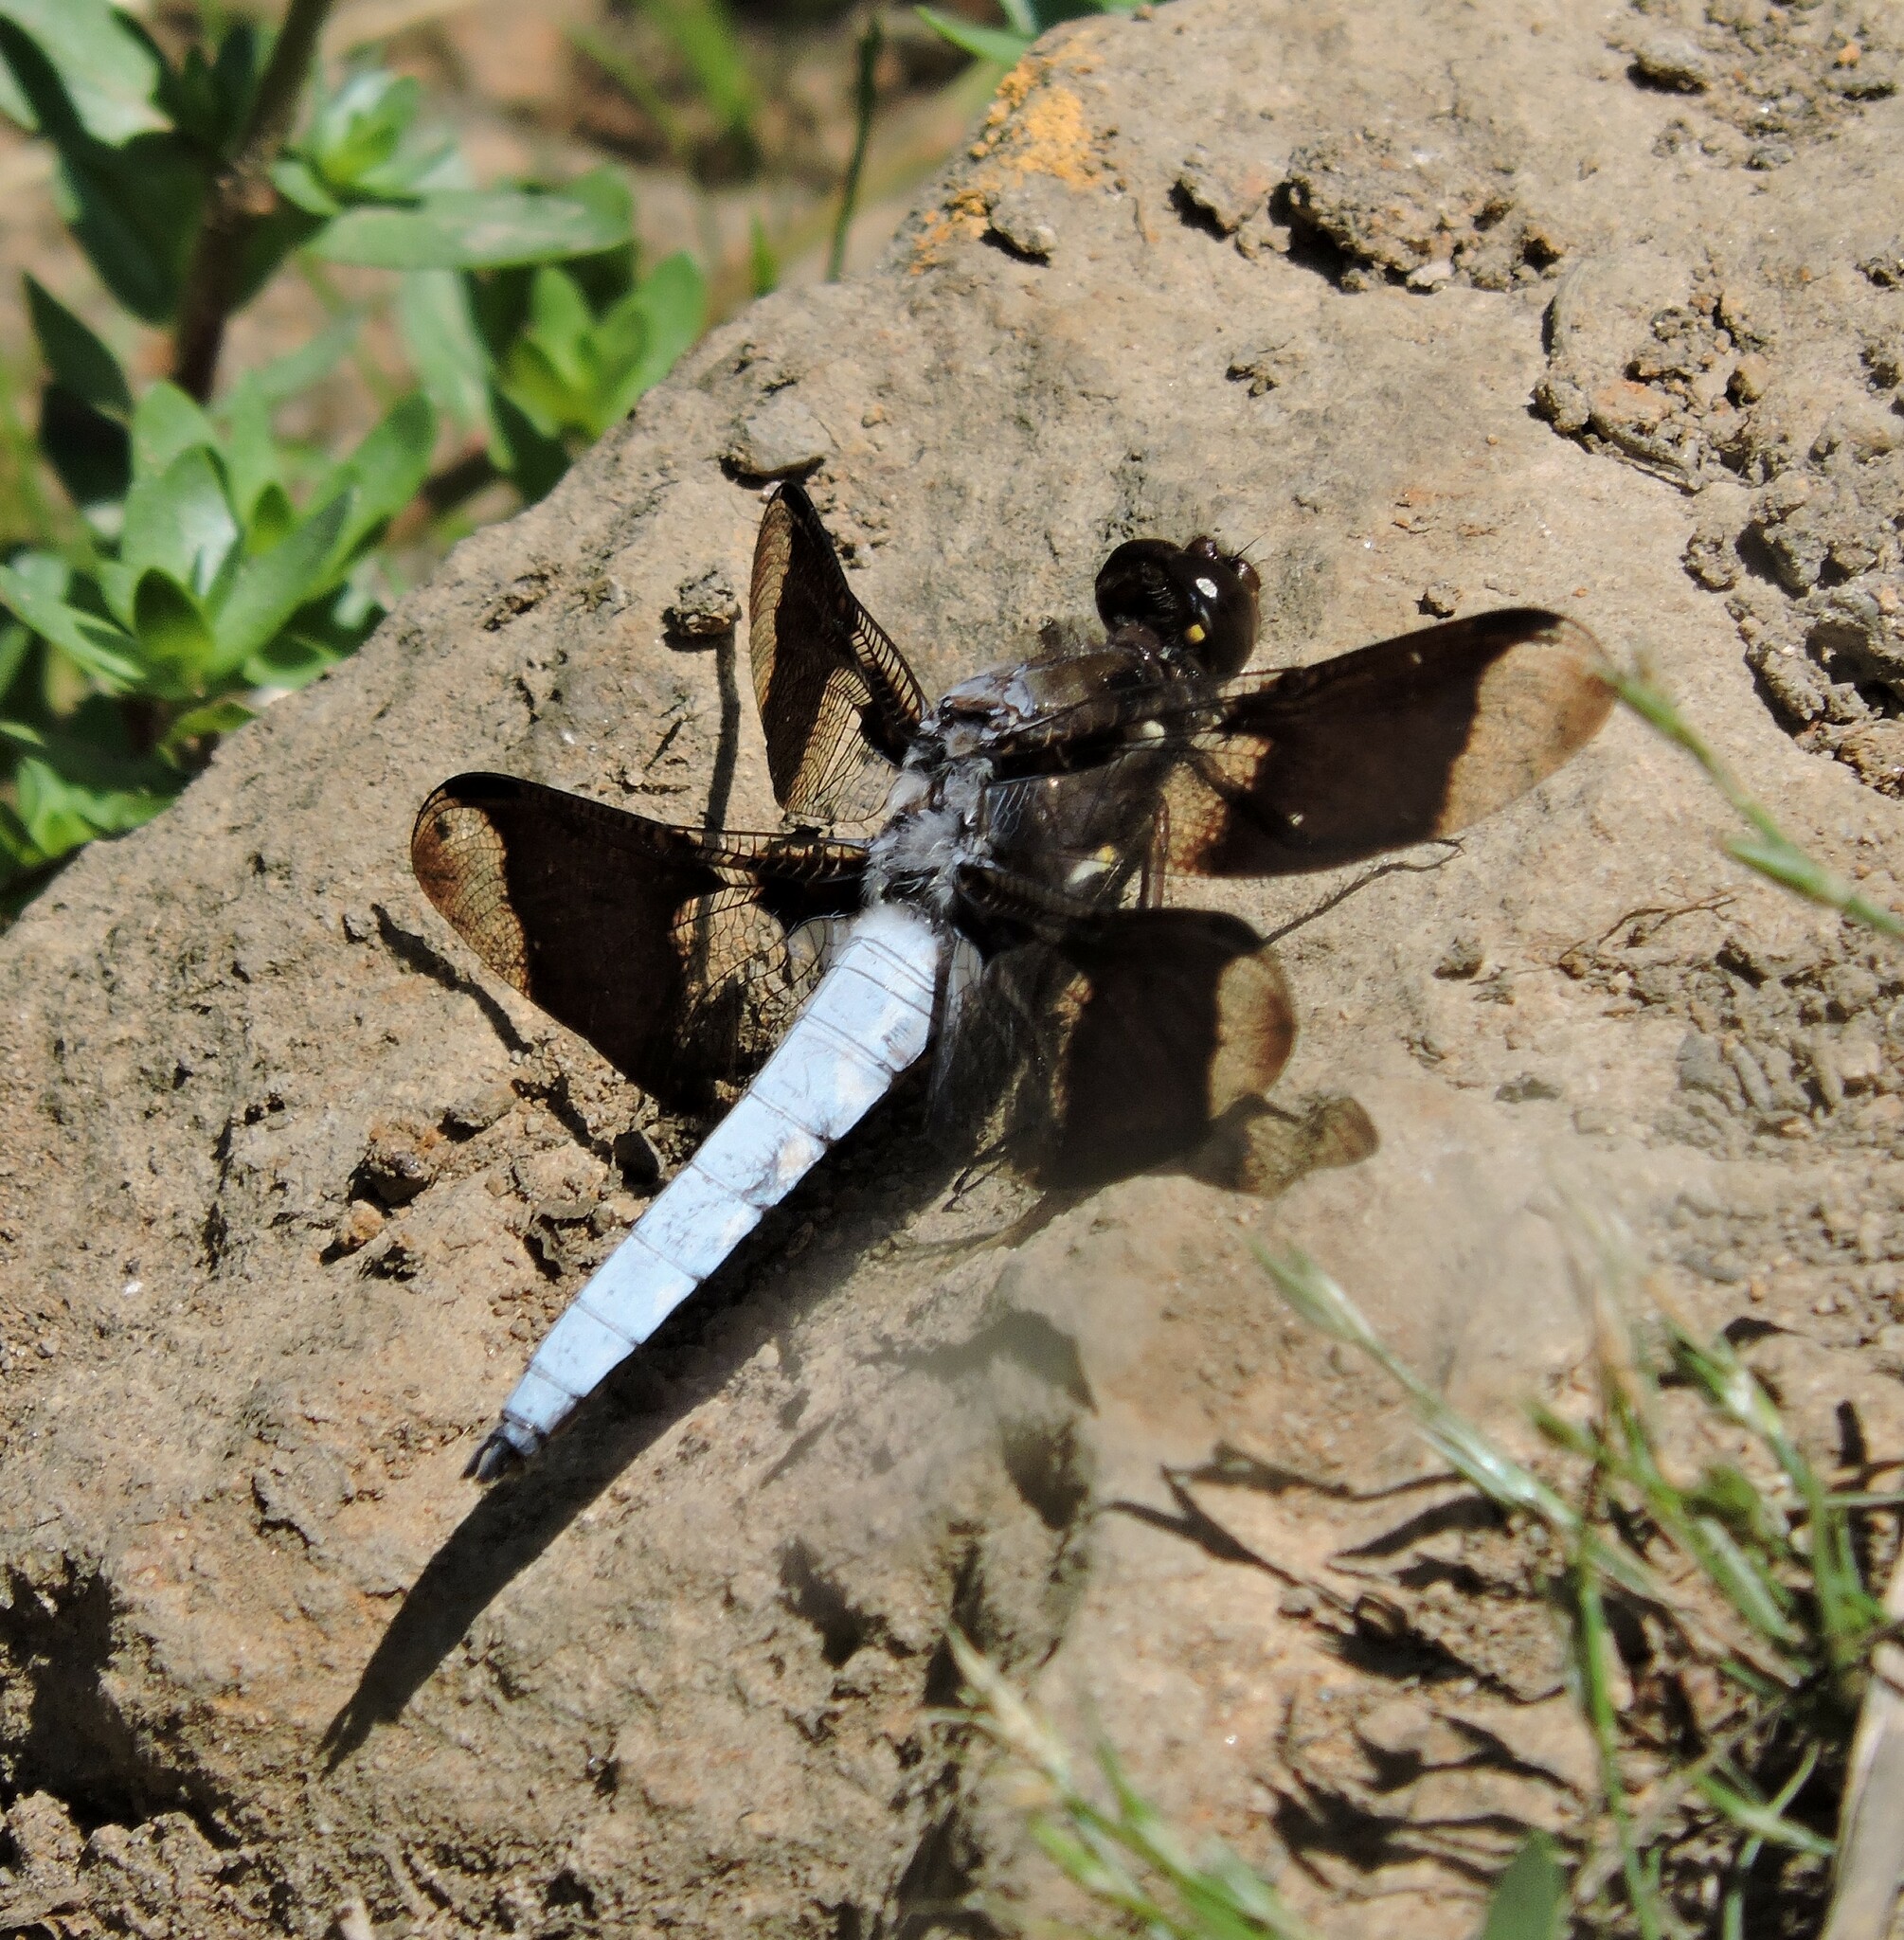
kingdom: Animalia
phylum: Arthropoda
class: Insecta
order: Odonata
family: Libellulidae
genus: Plathemis
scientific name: Plathemis lydia
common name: Common whitetail
